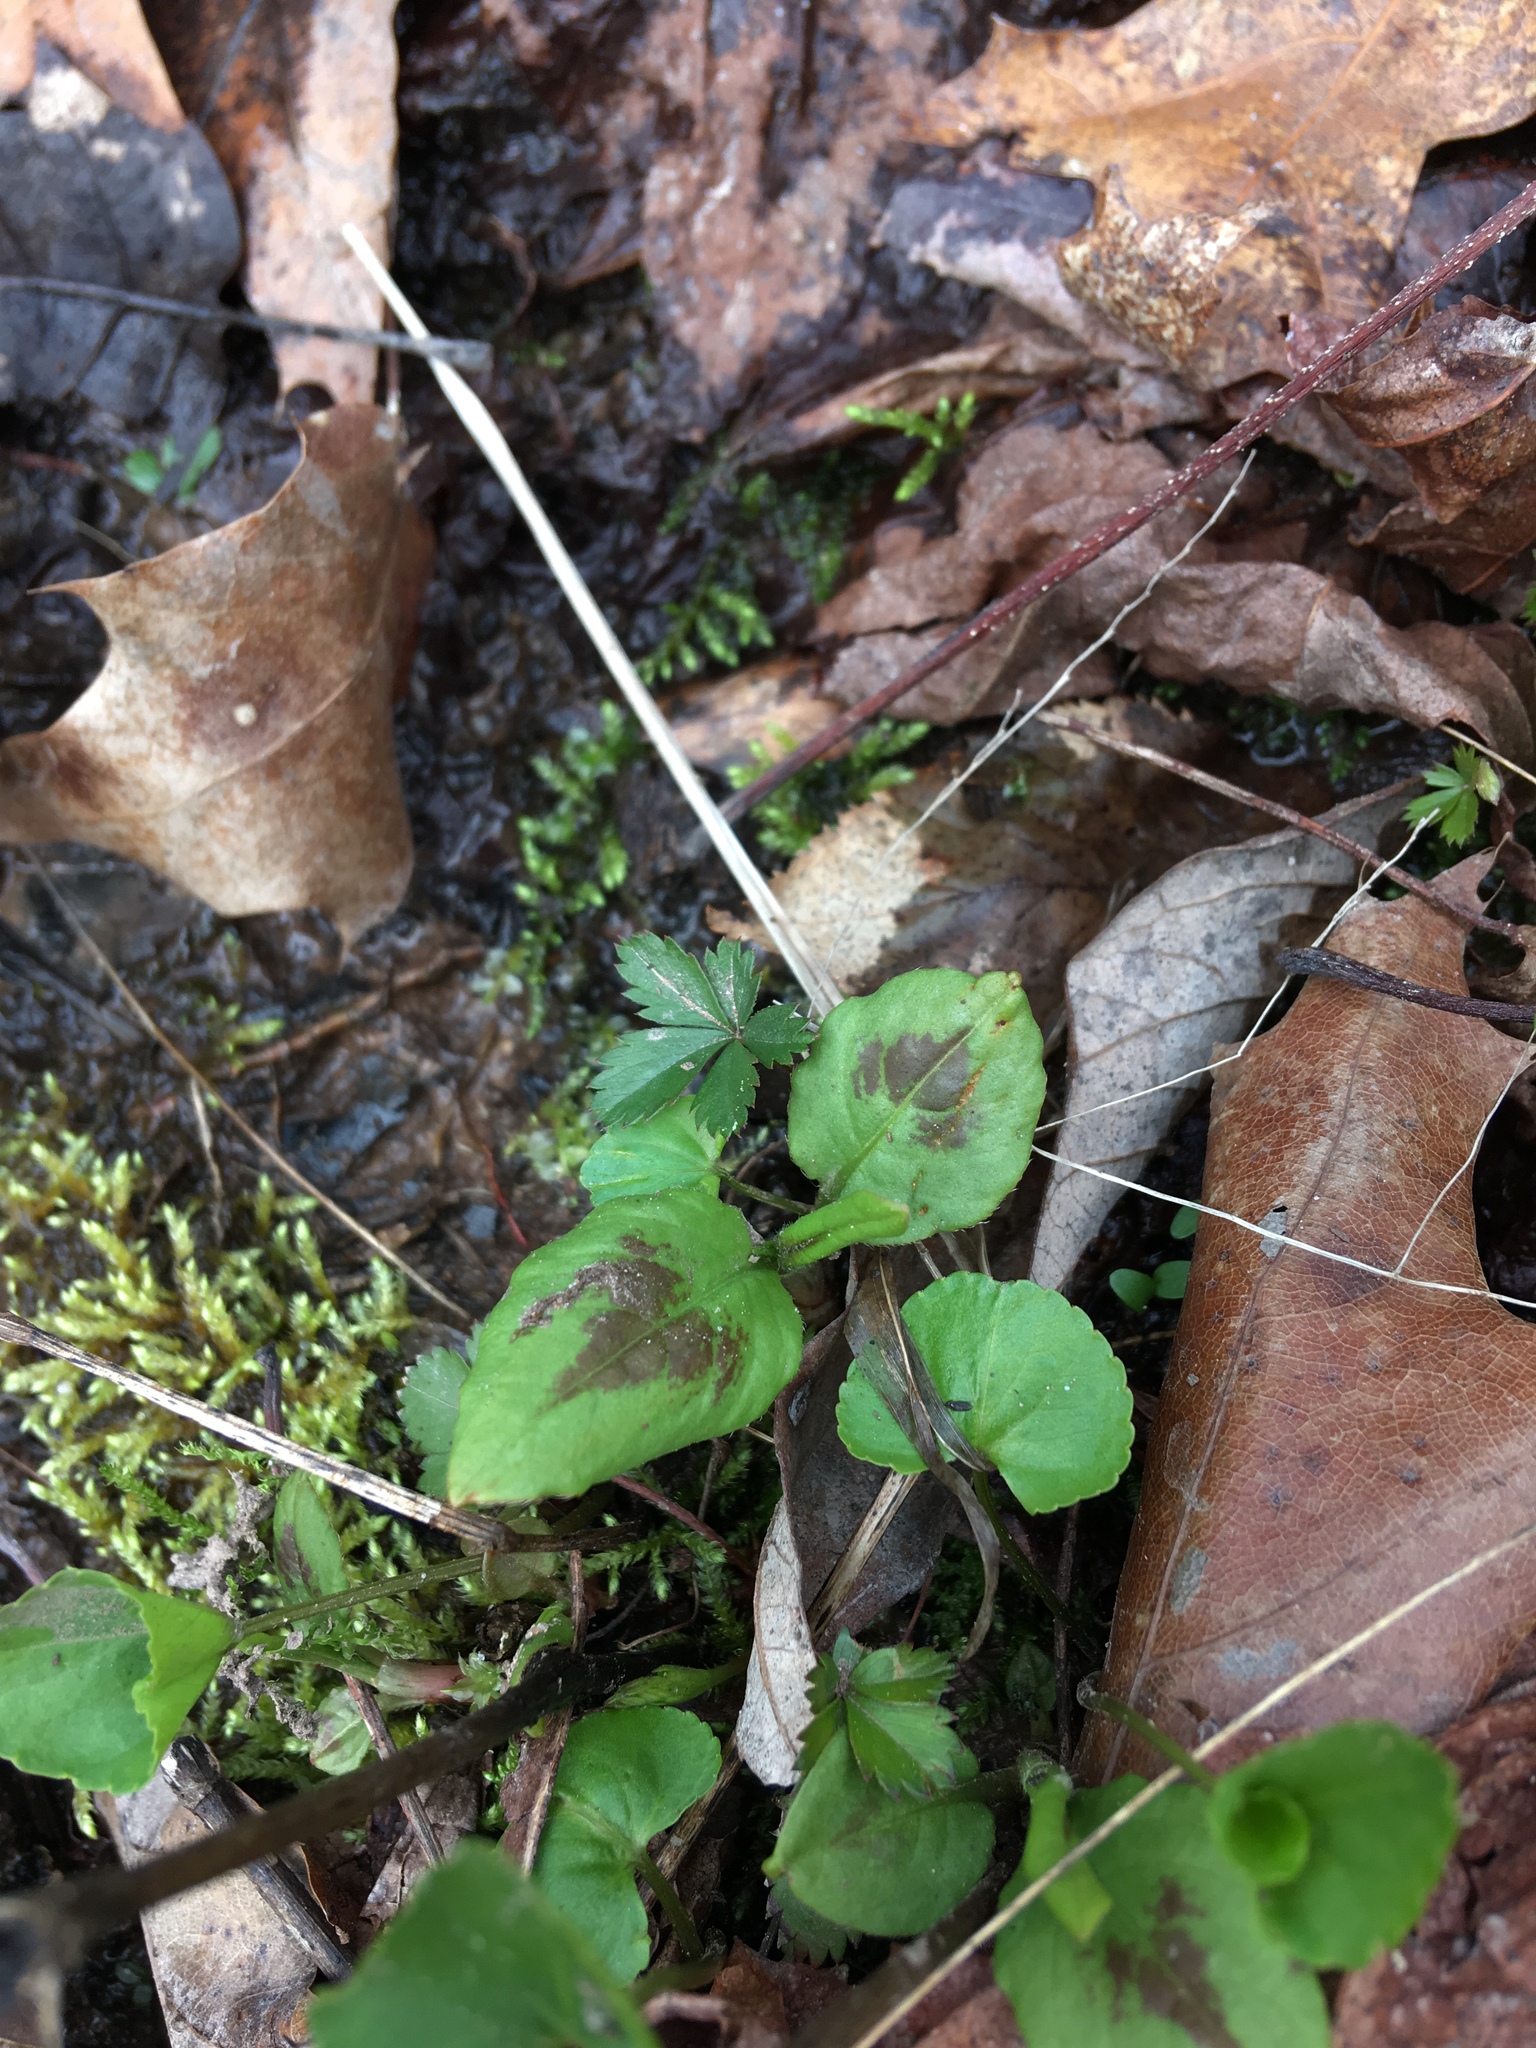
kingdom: Plantae
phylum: Tracheophyta
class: Magnoliopsida
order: Caryophyllales
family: Polygonaceae
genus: Persicaria
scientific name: Persicaria virginiana
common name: Jumpseed
